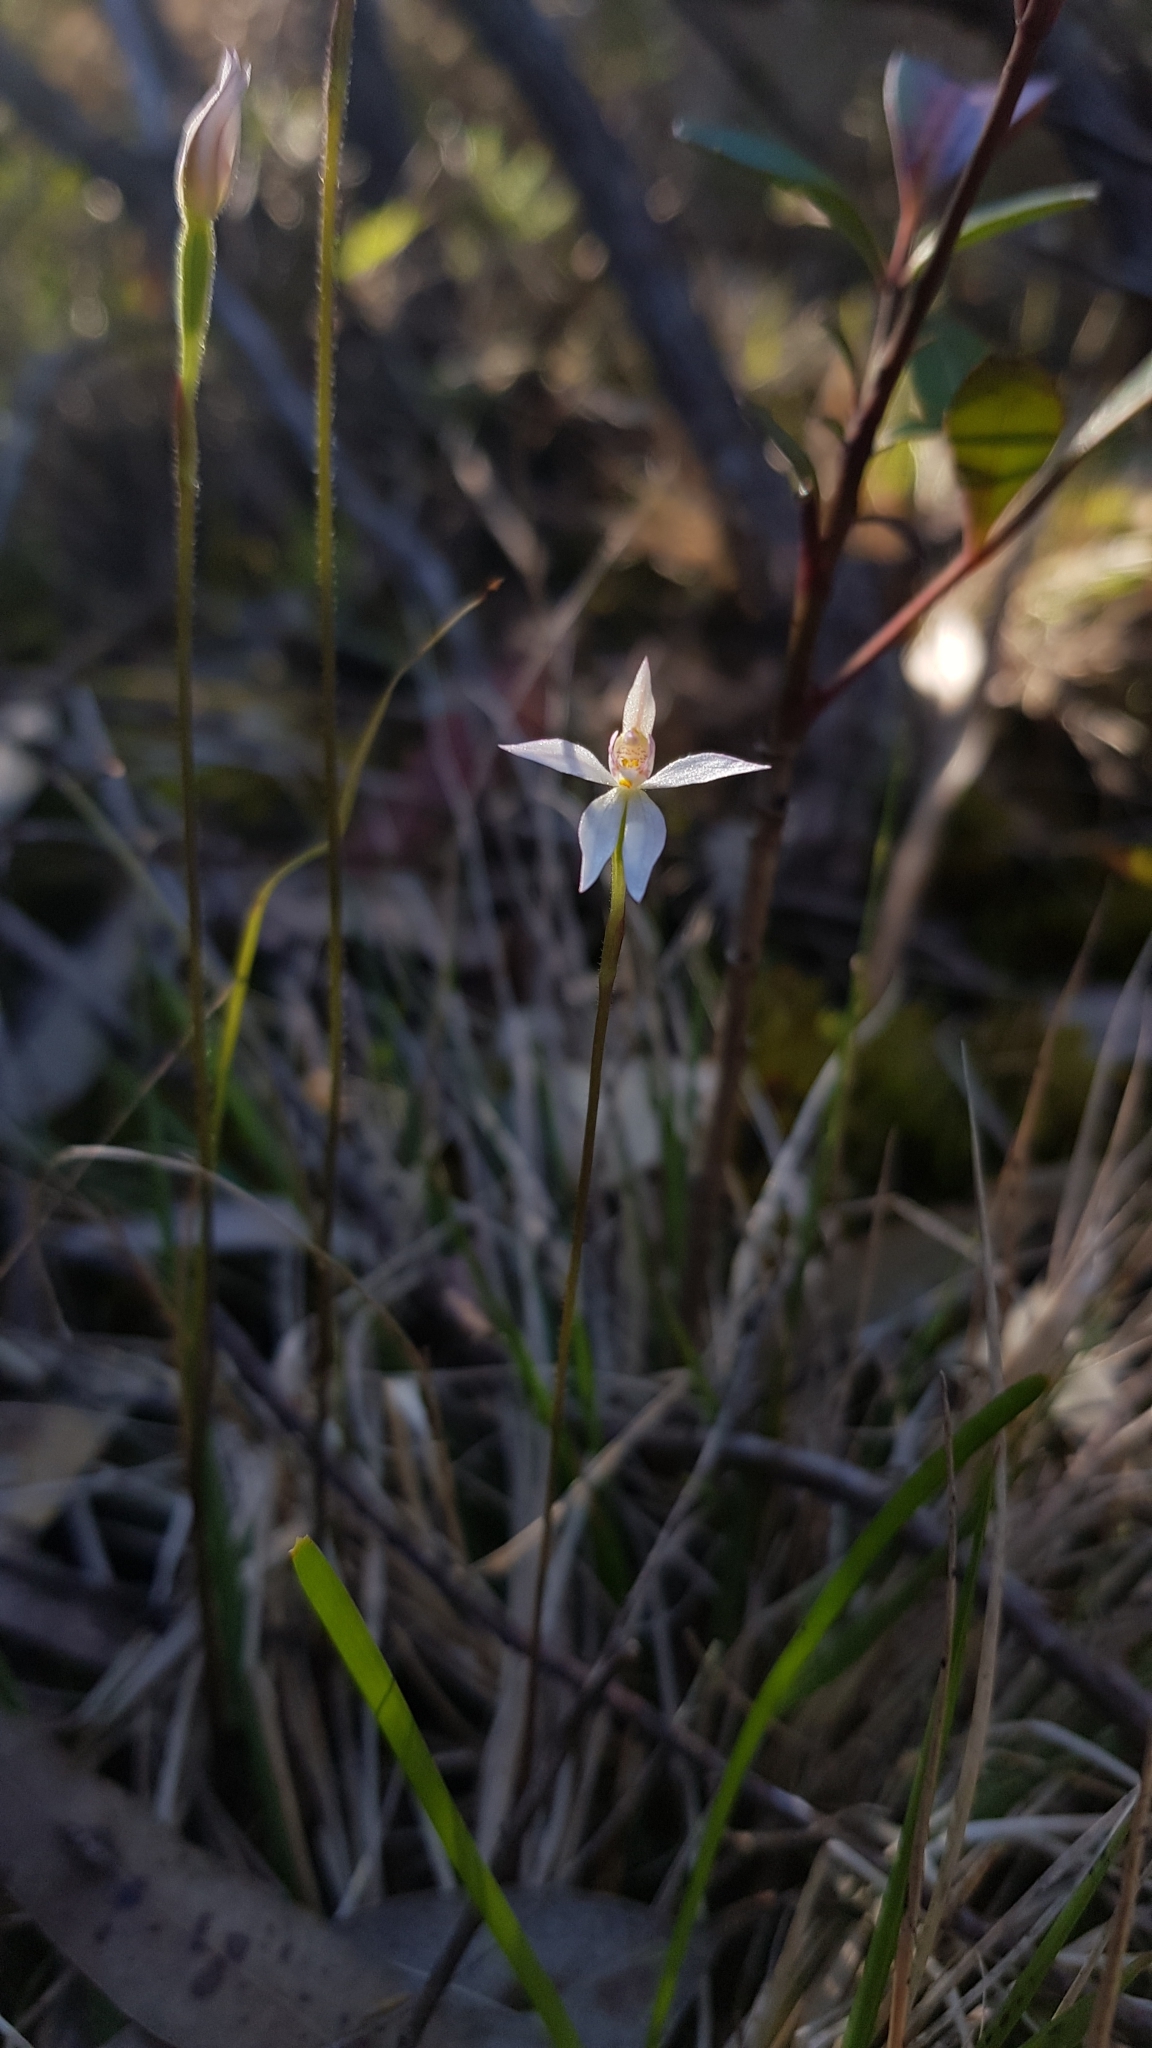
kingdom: Plantae
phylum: Tracheophyta
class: Liliopsida
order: Asparagales
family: Orchidaceae
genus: Caladenia
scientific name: Caladenia alata
